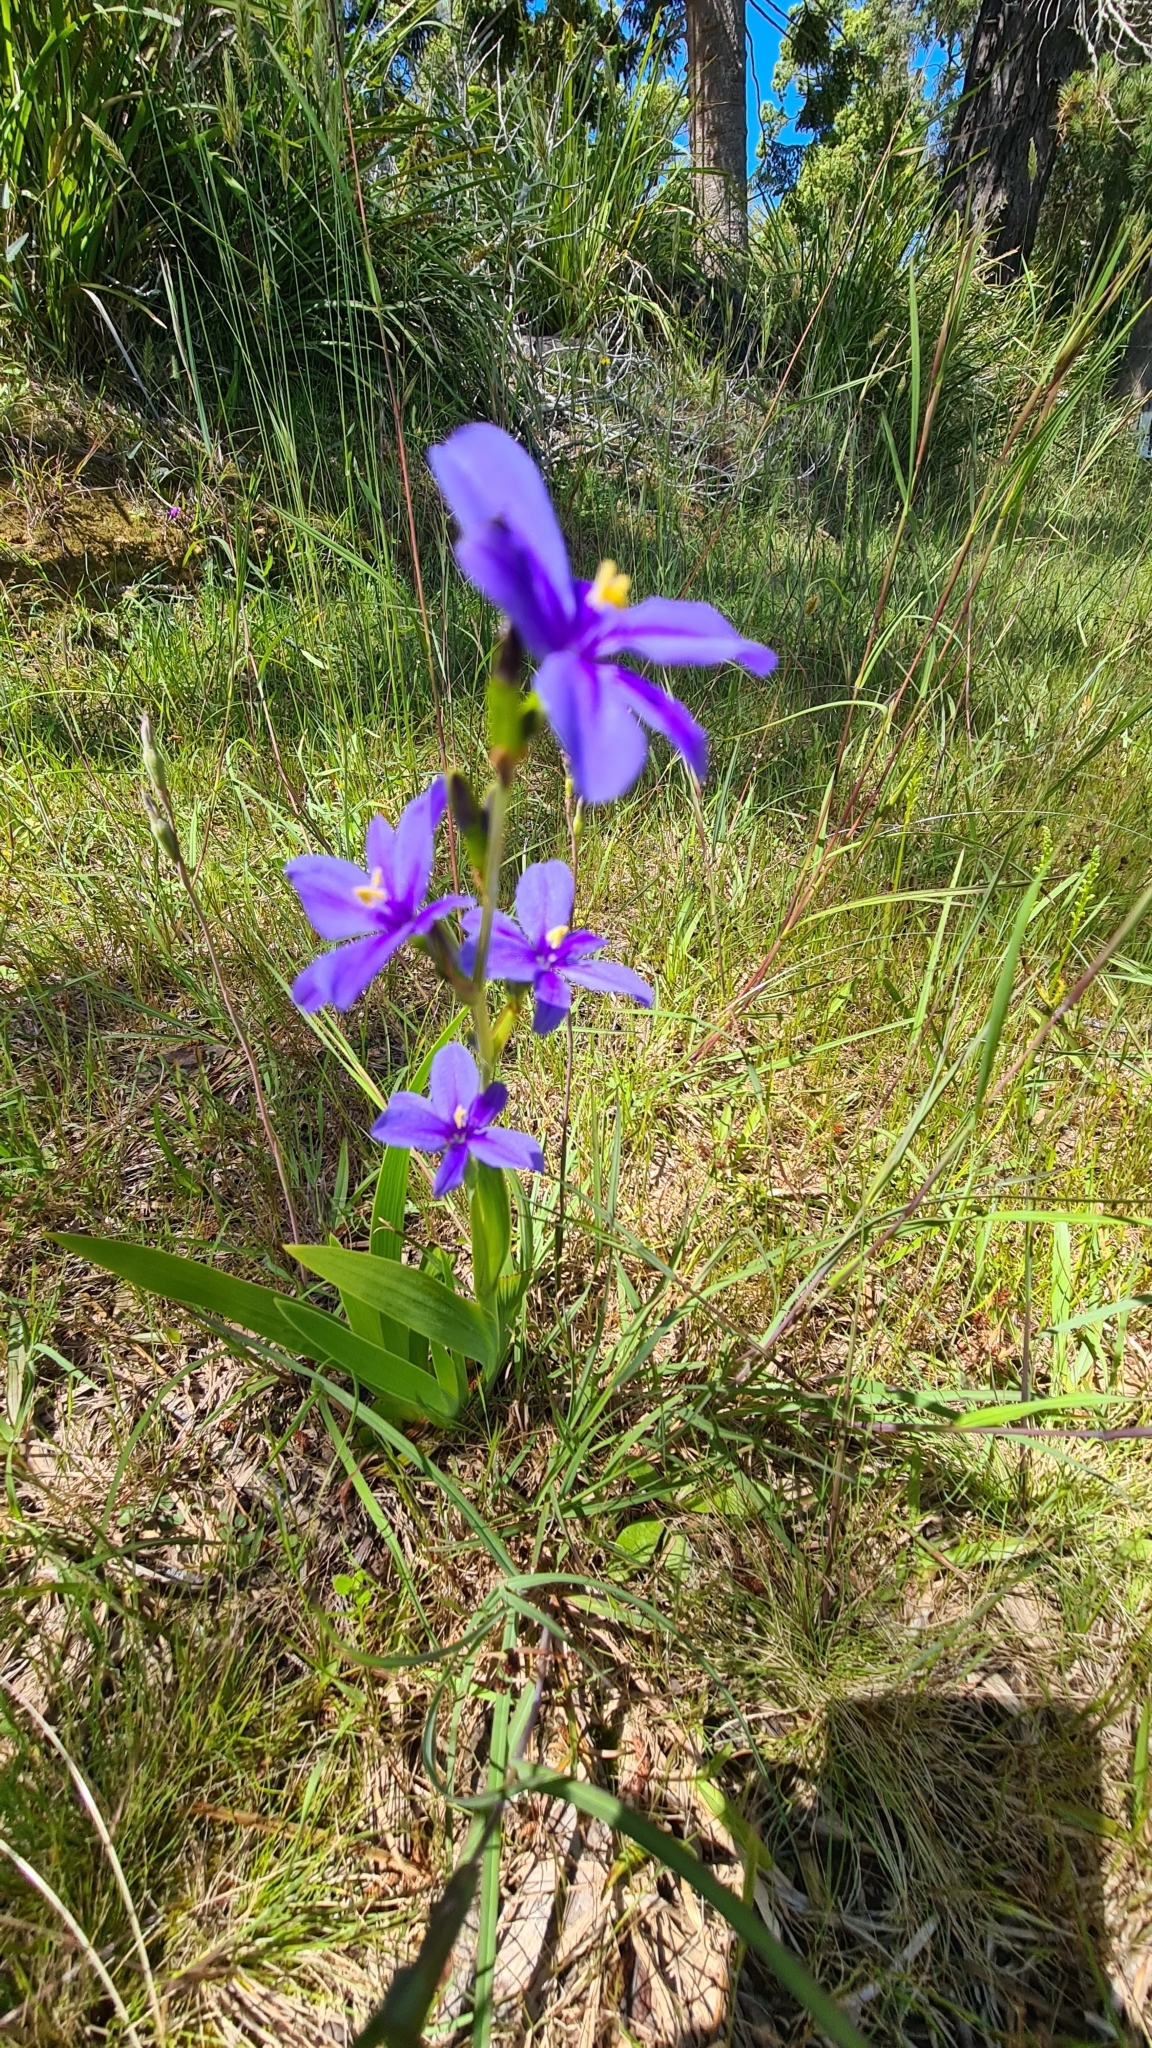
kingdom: Plantae
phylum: Tracheophyta
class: Liliopsida
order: Asparagales
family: Iridaceae
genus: Aristea
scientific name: Aristea ecklonii
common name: Blue corn-lily
